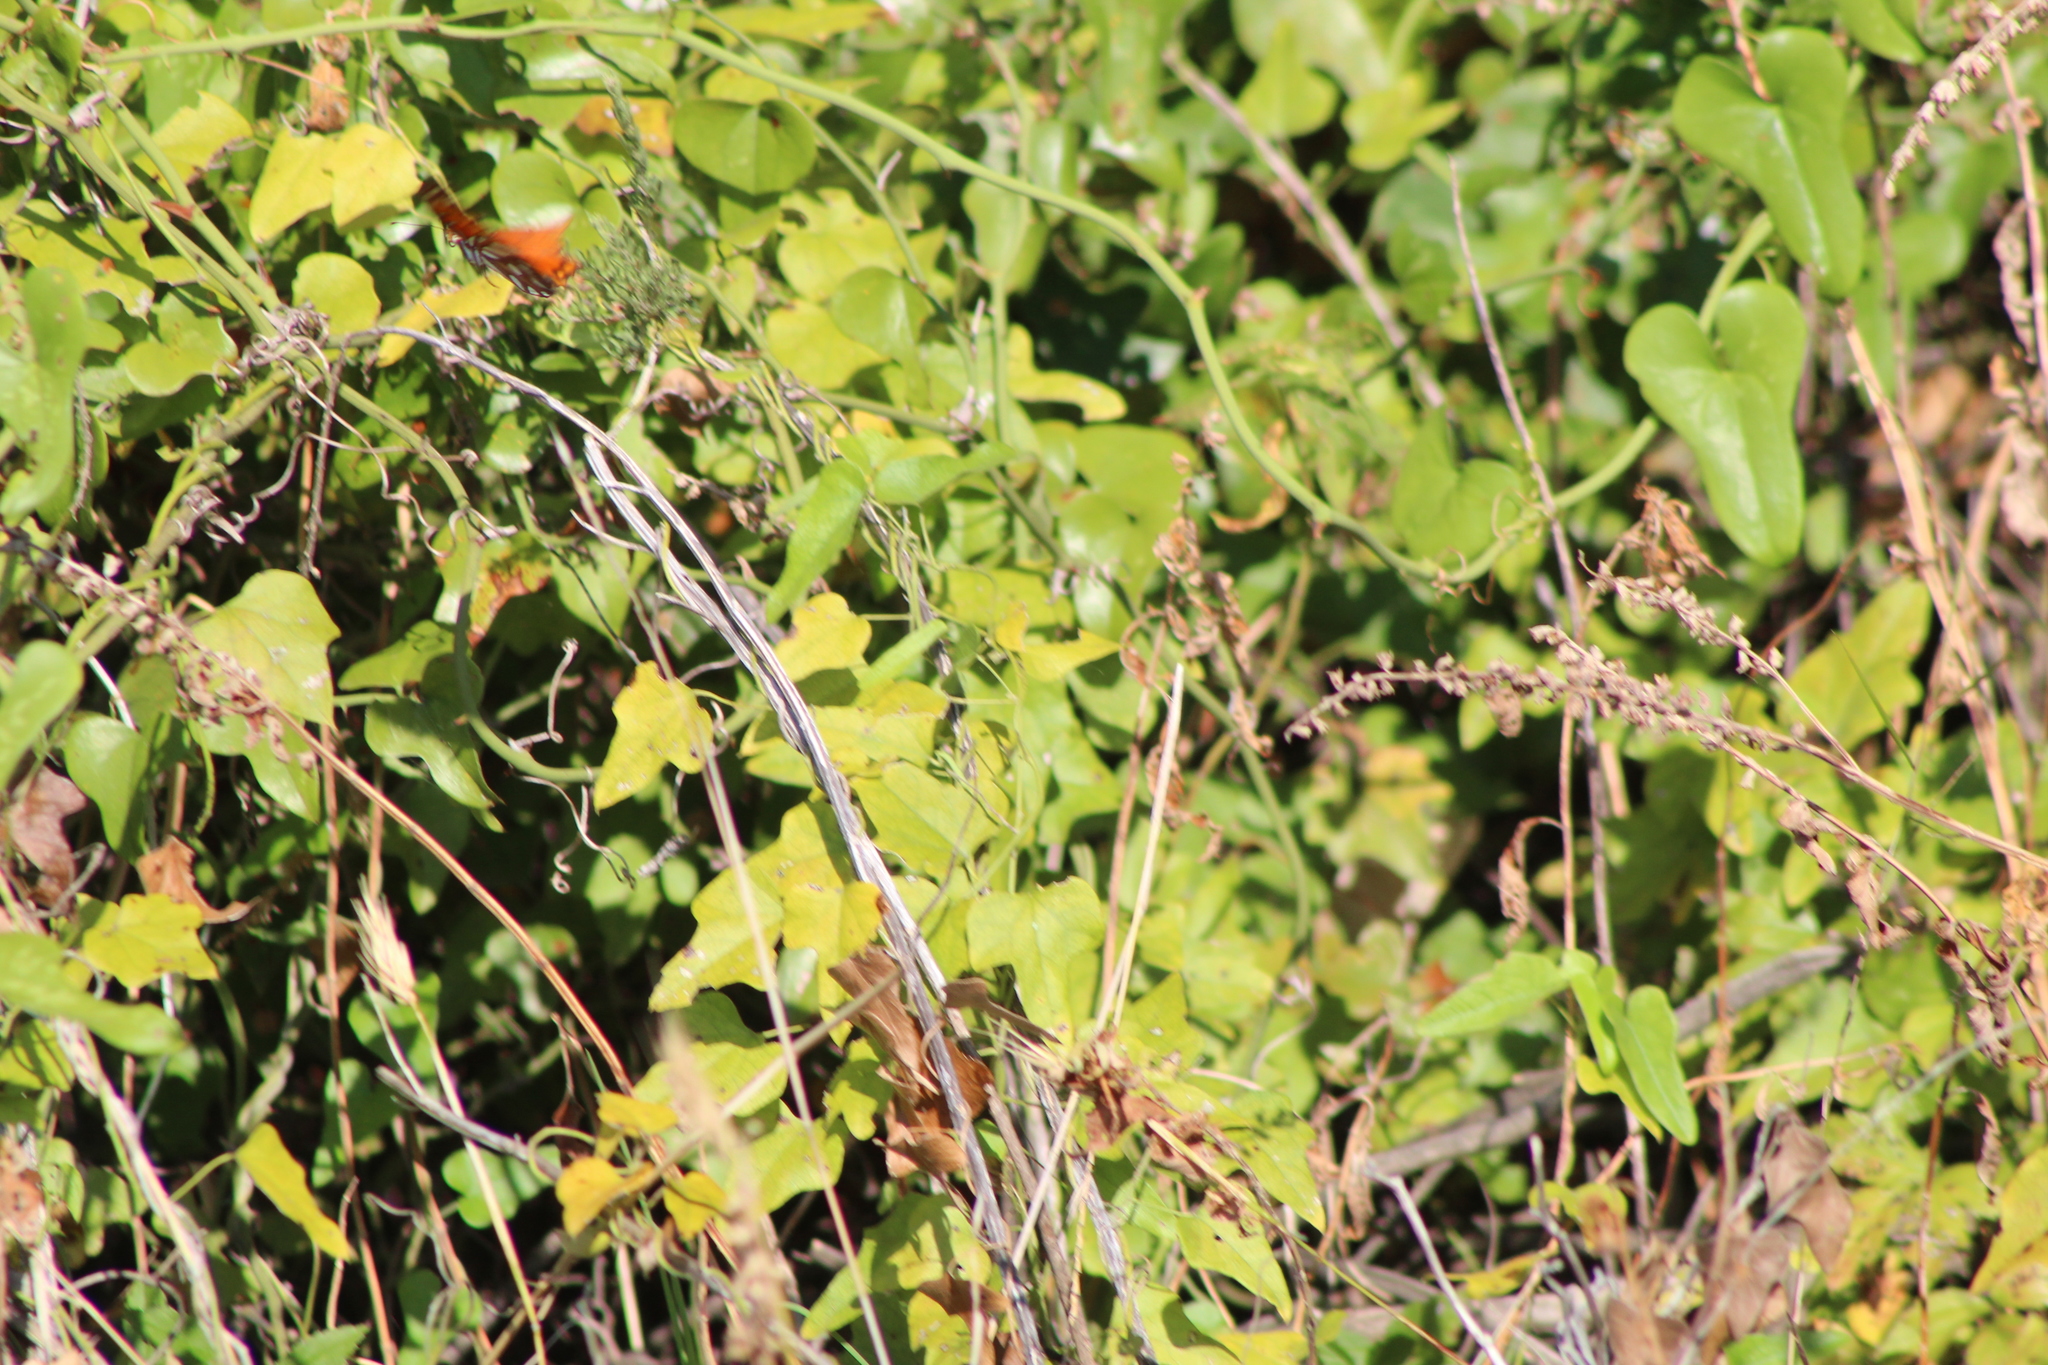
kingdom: Animalia
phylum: Arthropoda
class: Insecta
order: Lepidoptera
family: Nymphalidae
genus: Dione
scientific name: Dione vanillae
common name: Gulf fritillary
